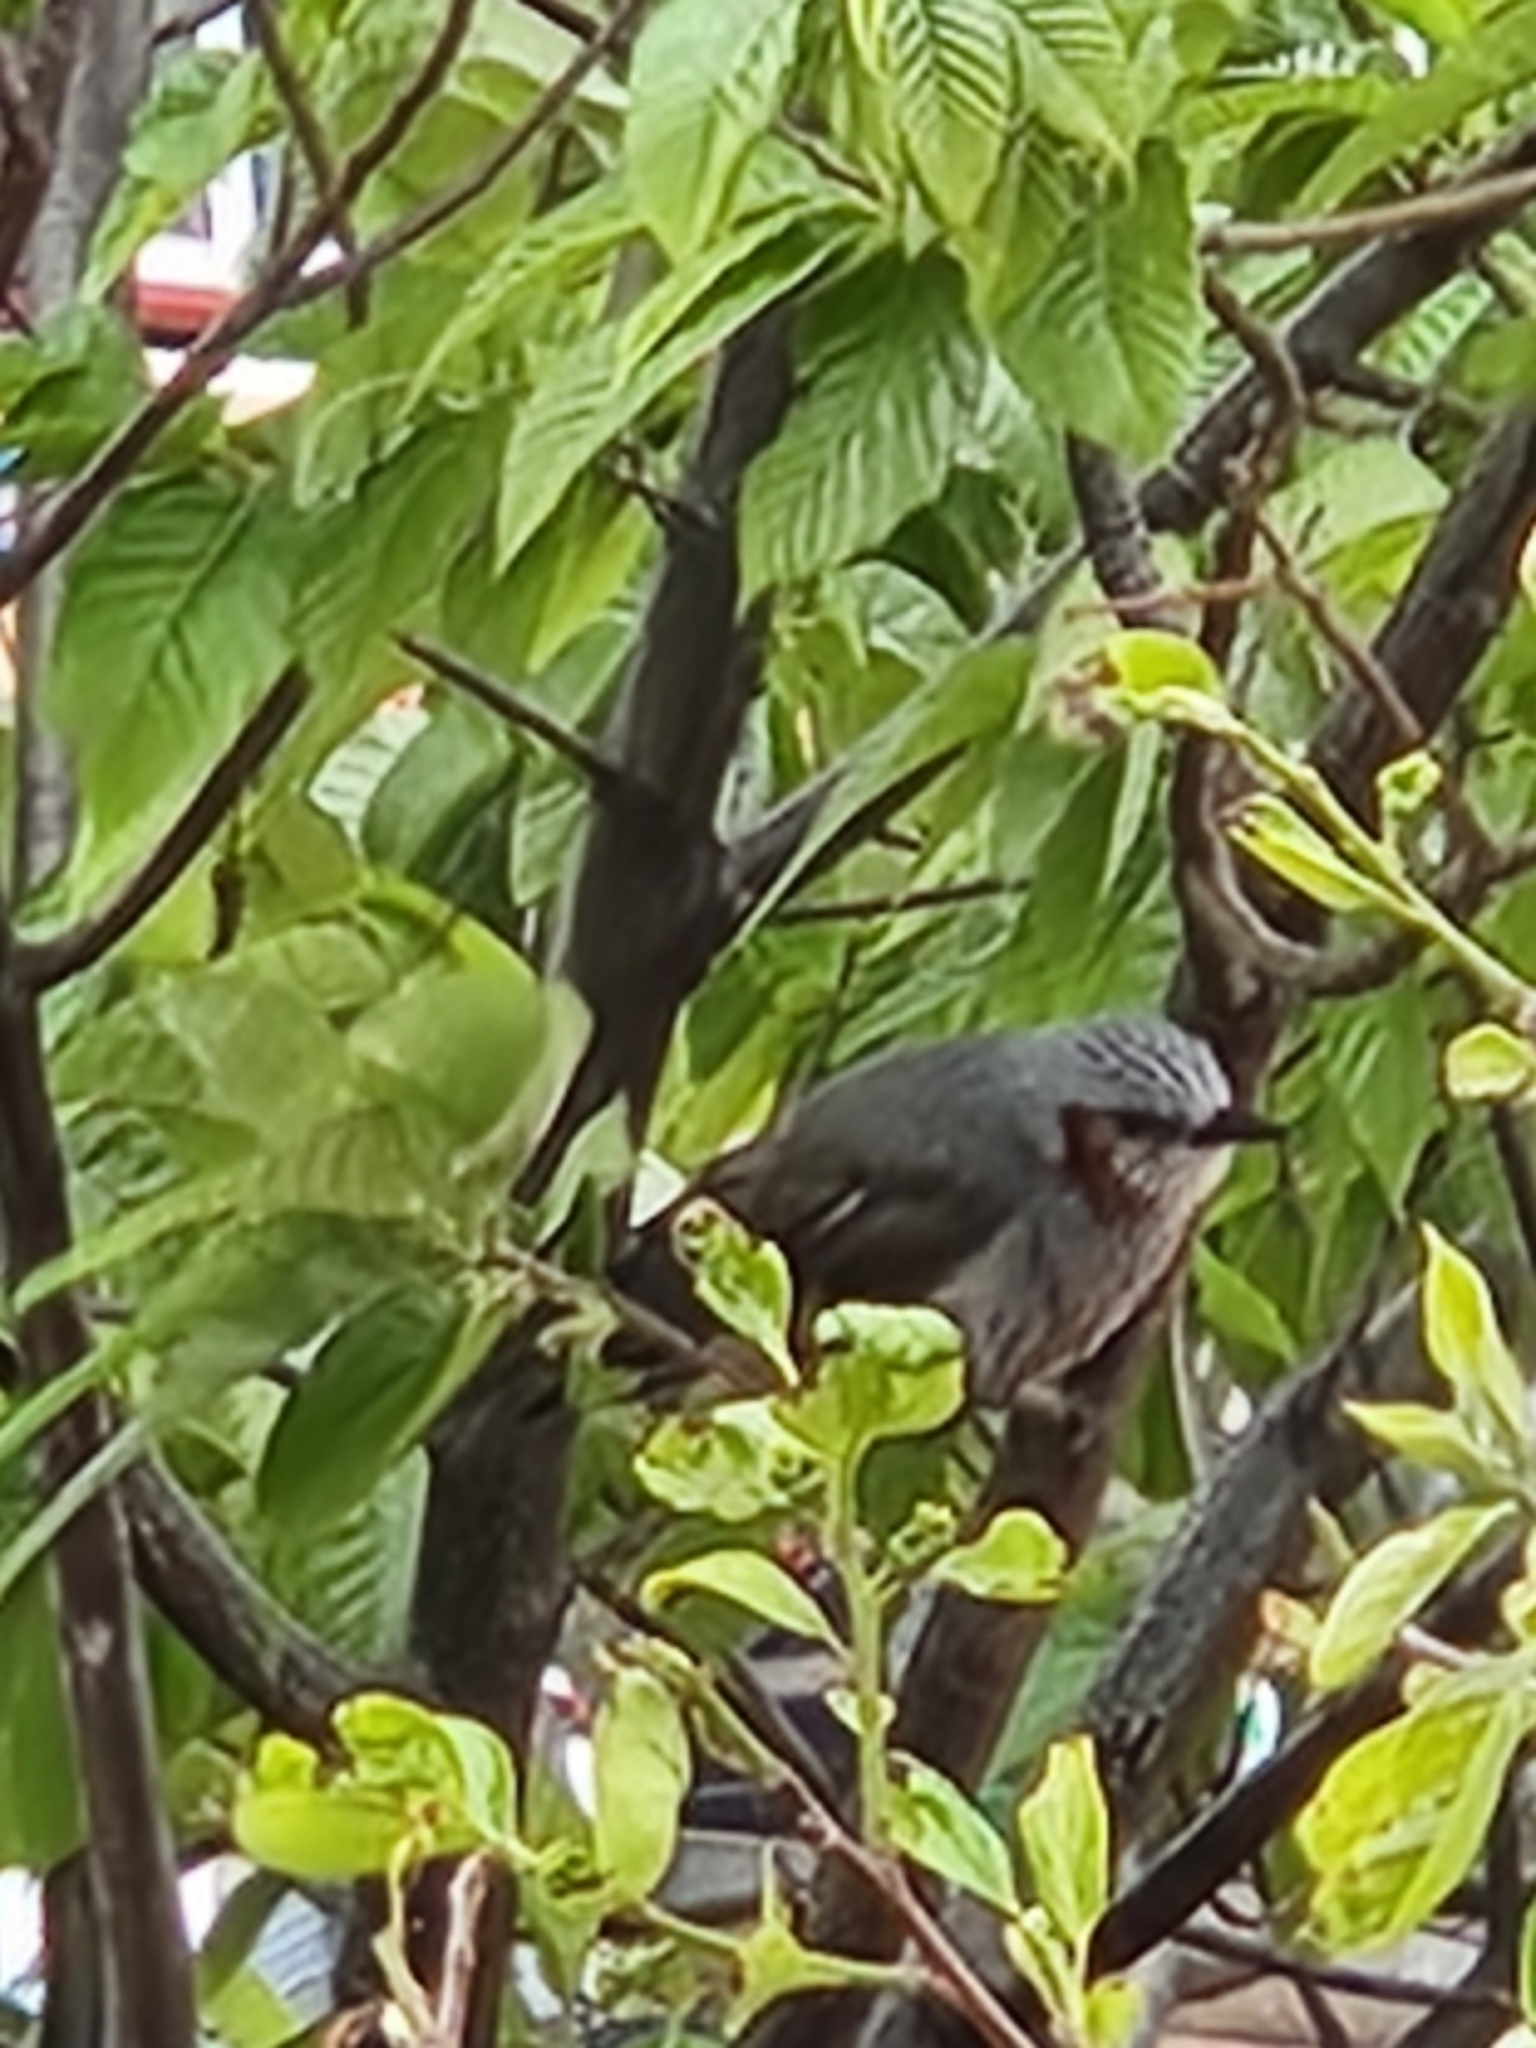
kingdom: Animalia
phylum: Chordata
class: Aves
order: Passeriformes
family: Pycnonotidae
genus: Hypsipetes
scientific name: Hypsipetes amaurotis
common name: Brown-eared bulbul
